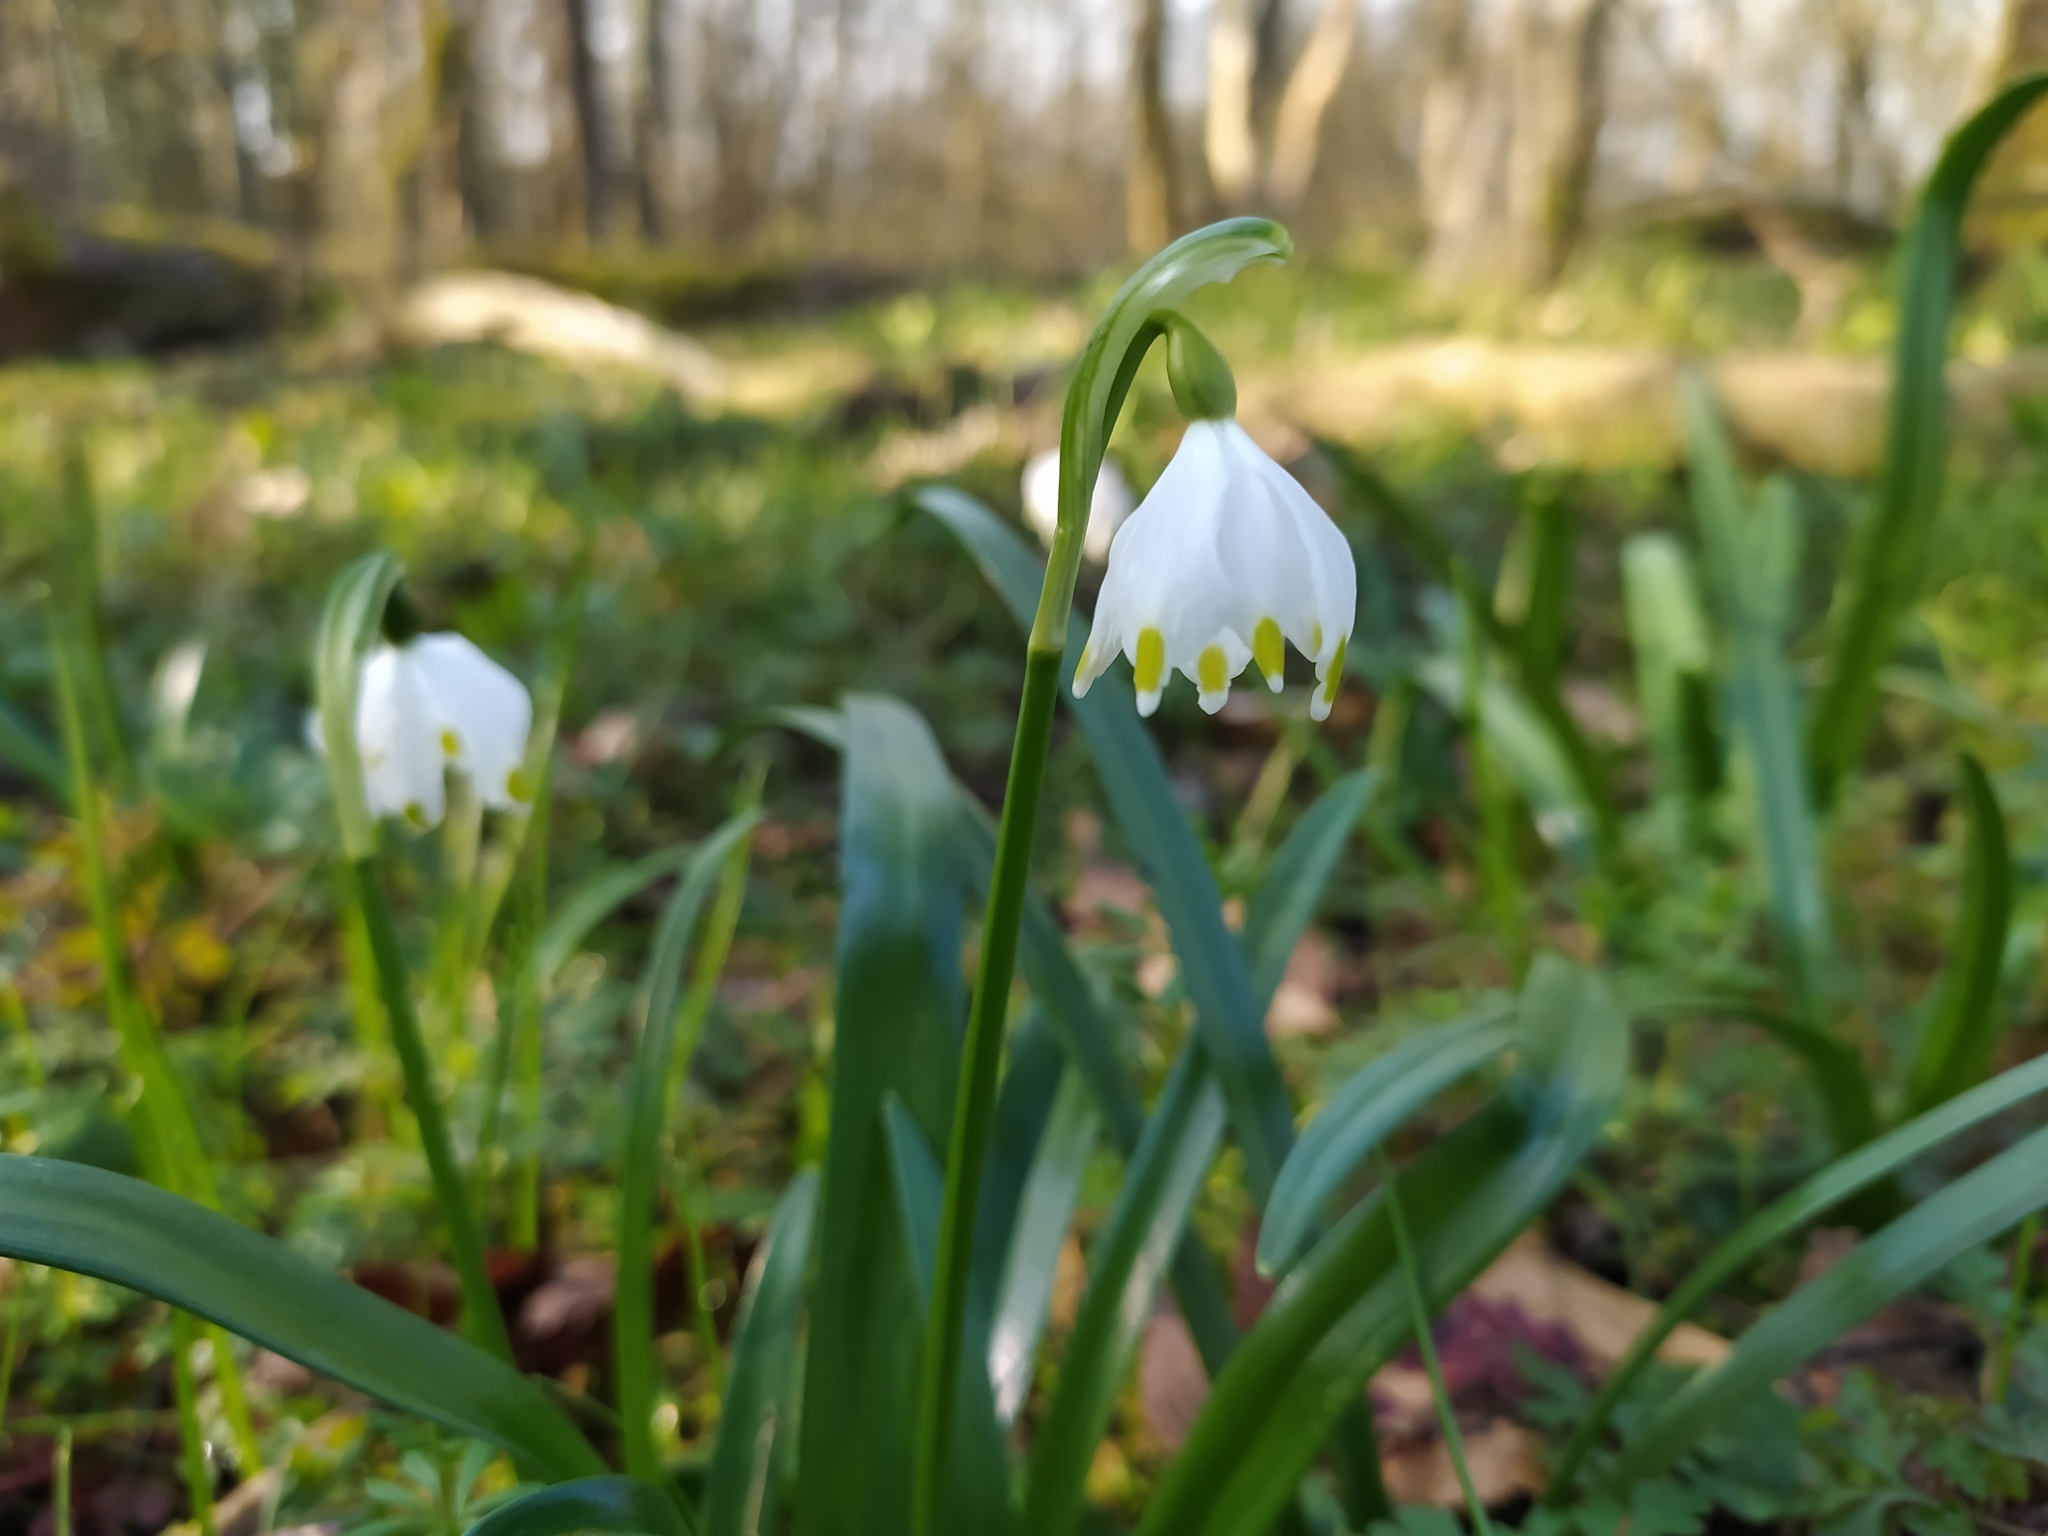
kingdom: Plantae
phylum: Tracheophyta
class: Liliopsida
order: Asparagales
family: Amaryllidaceae
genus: Leucojum
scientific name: Leucojum vernum
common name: Spring snowflake
